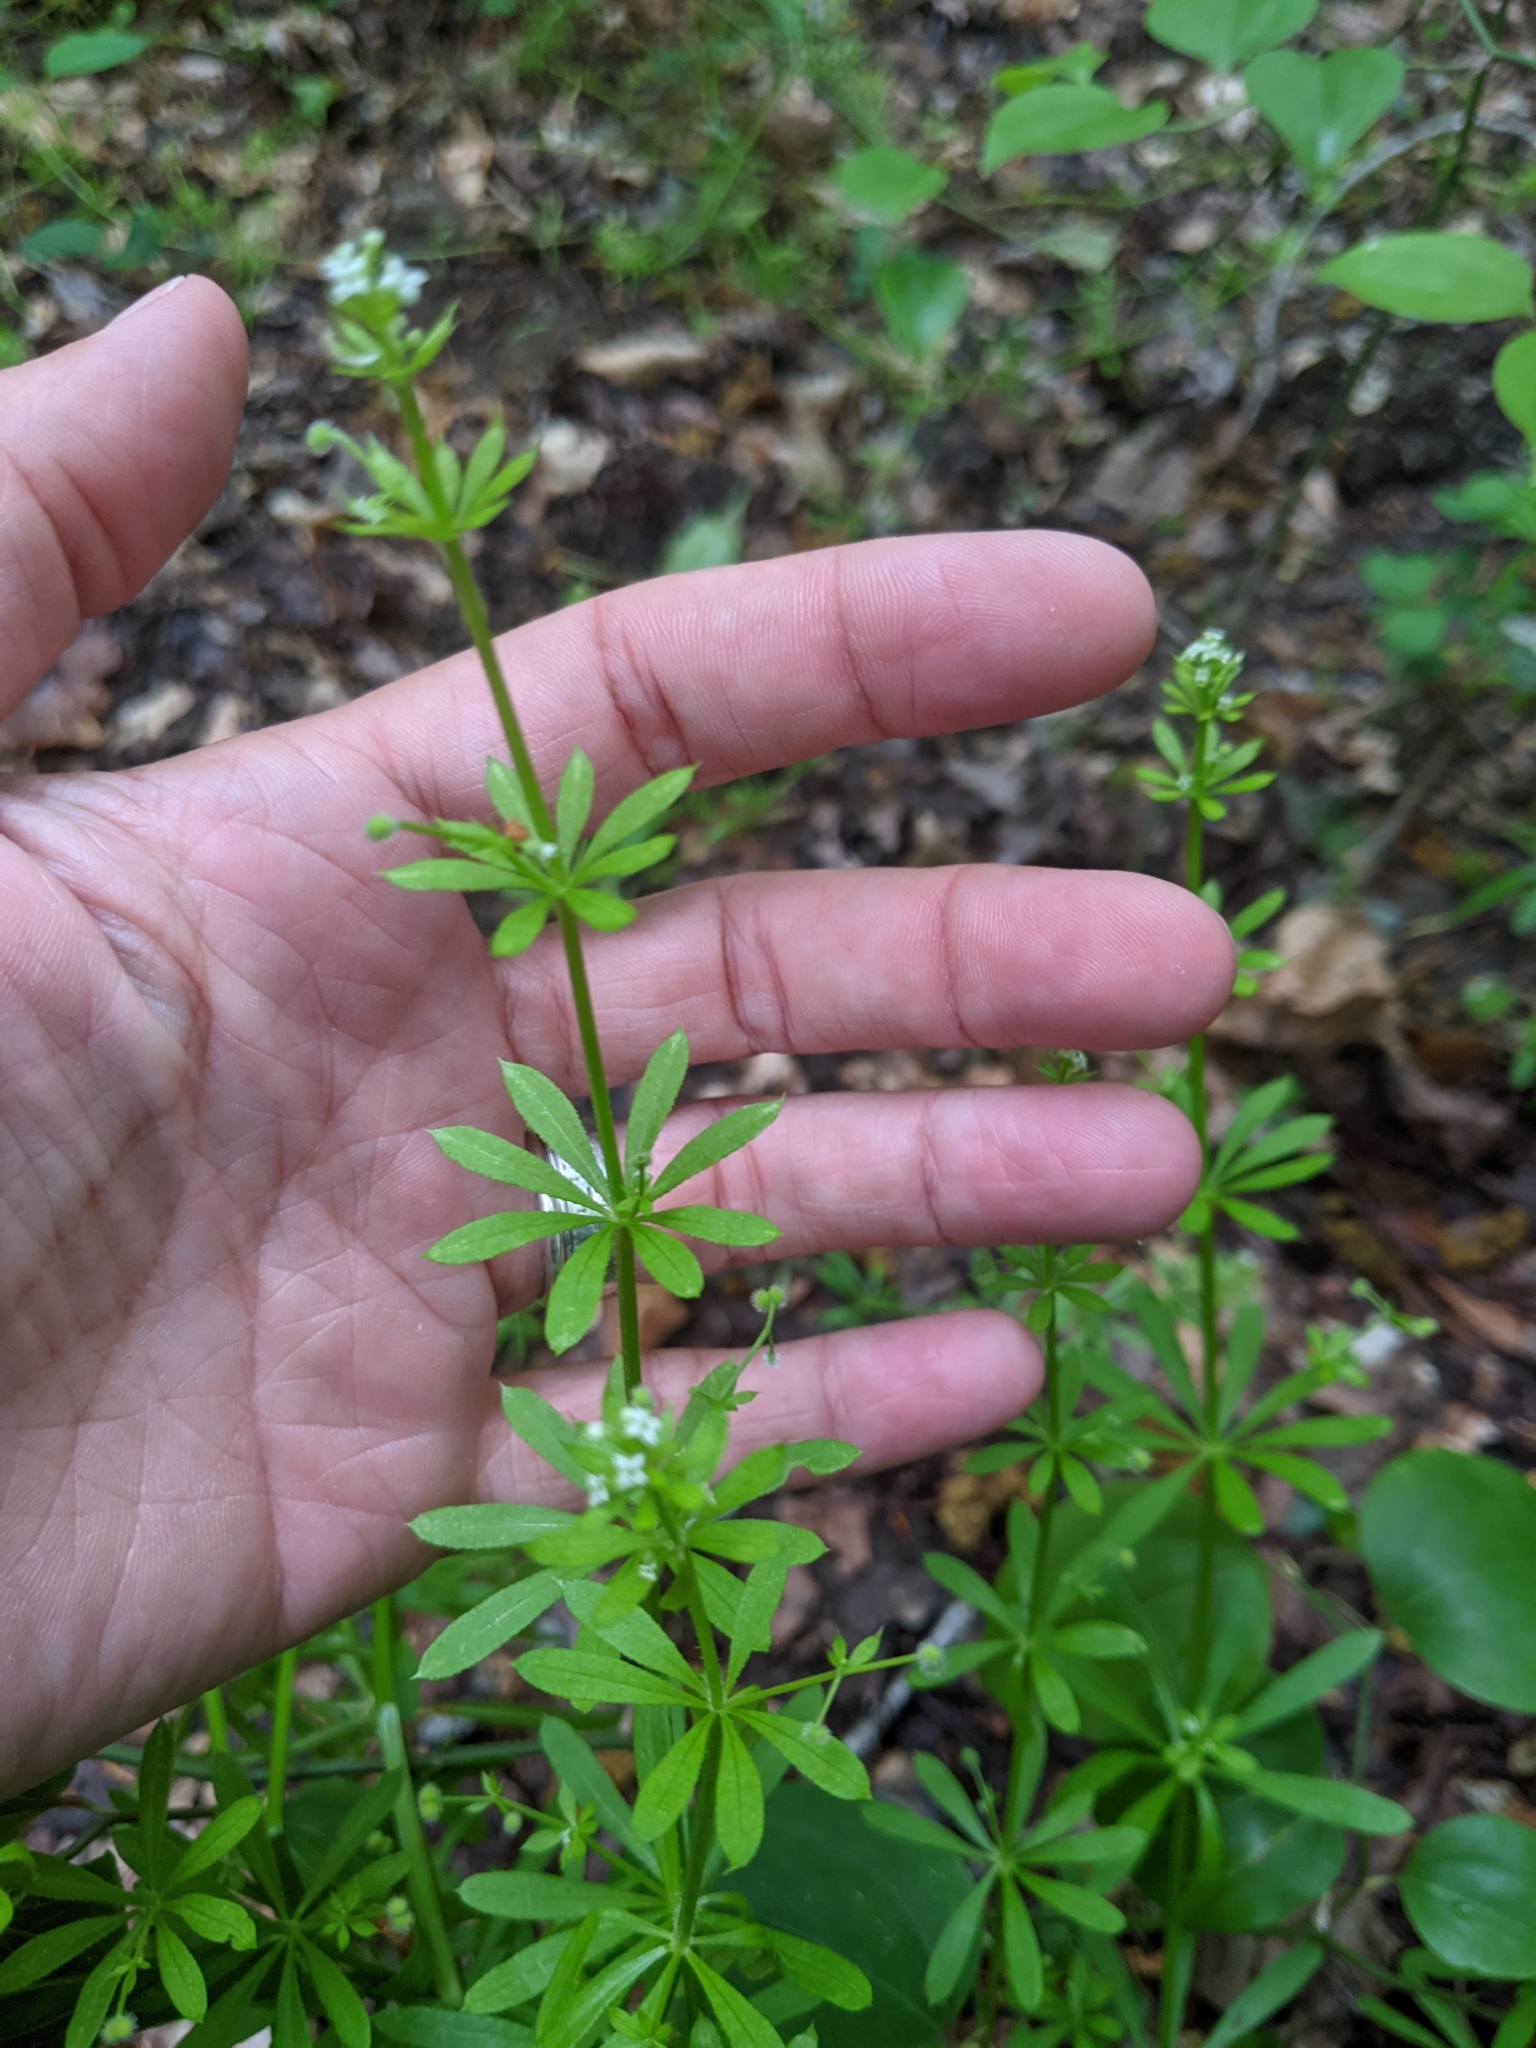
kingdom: Plantae
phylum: Tracheophyta
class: Magnoliopsida
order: Gentianales
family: Rubiaceae
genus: Galium
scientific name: Galium aparine
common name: Cleavers
